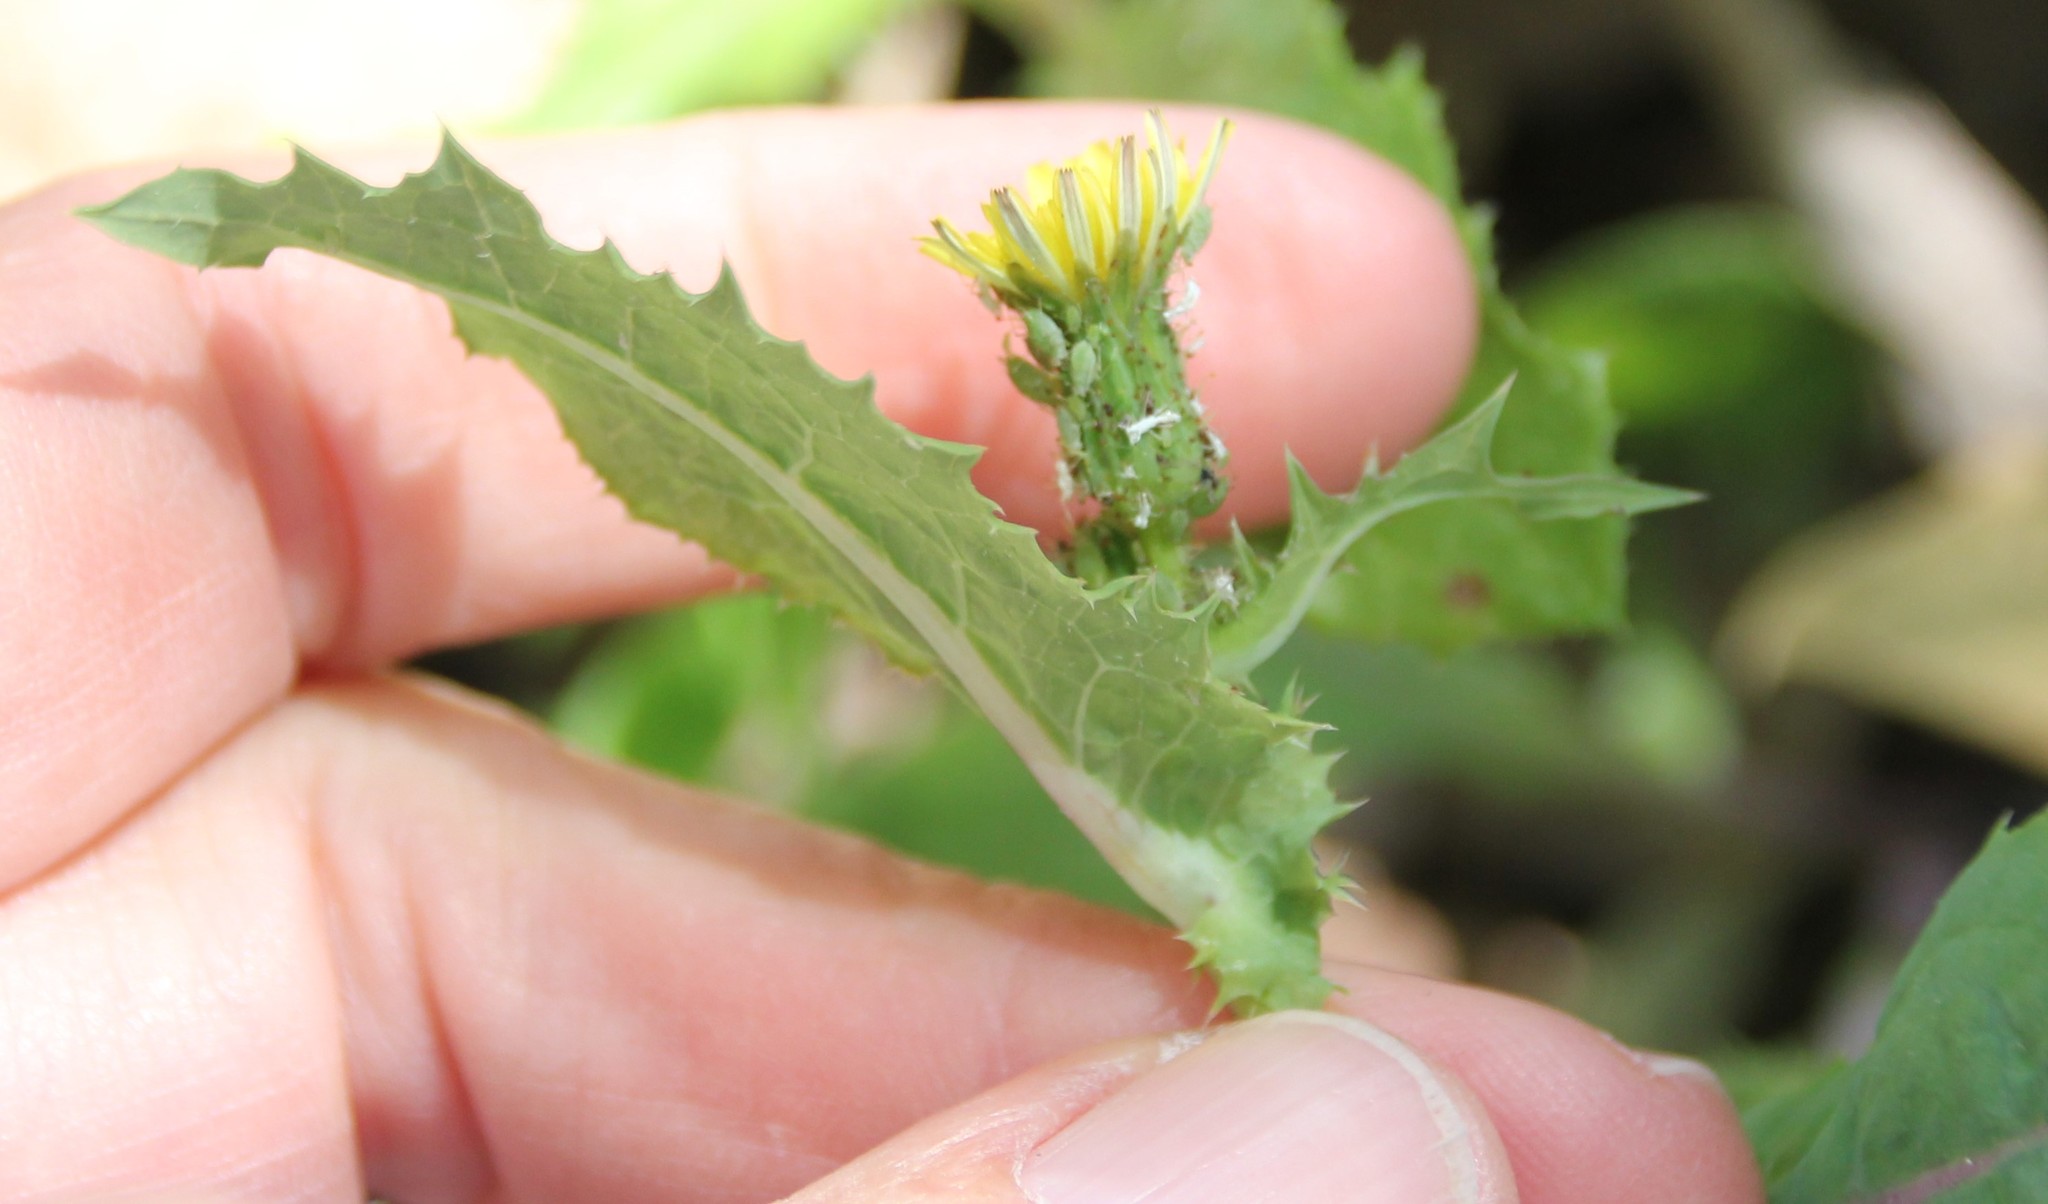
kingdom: Plantae
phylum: Tracheophyta
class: Magnoliopsida
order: Asterales
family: Asteraceae
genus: Sonchus
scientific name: Sonchus oleraceus
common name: Common sowthistle
